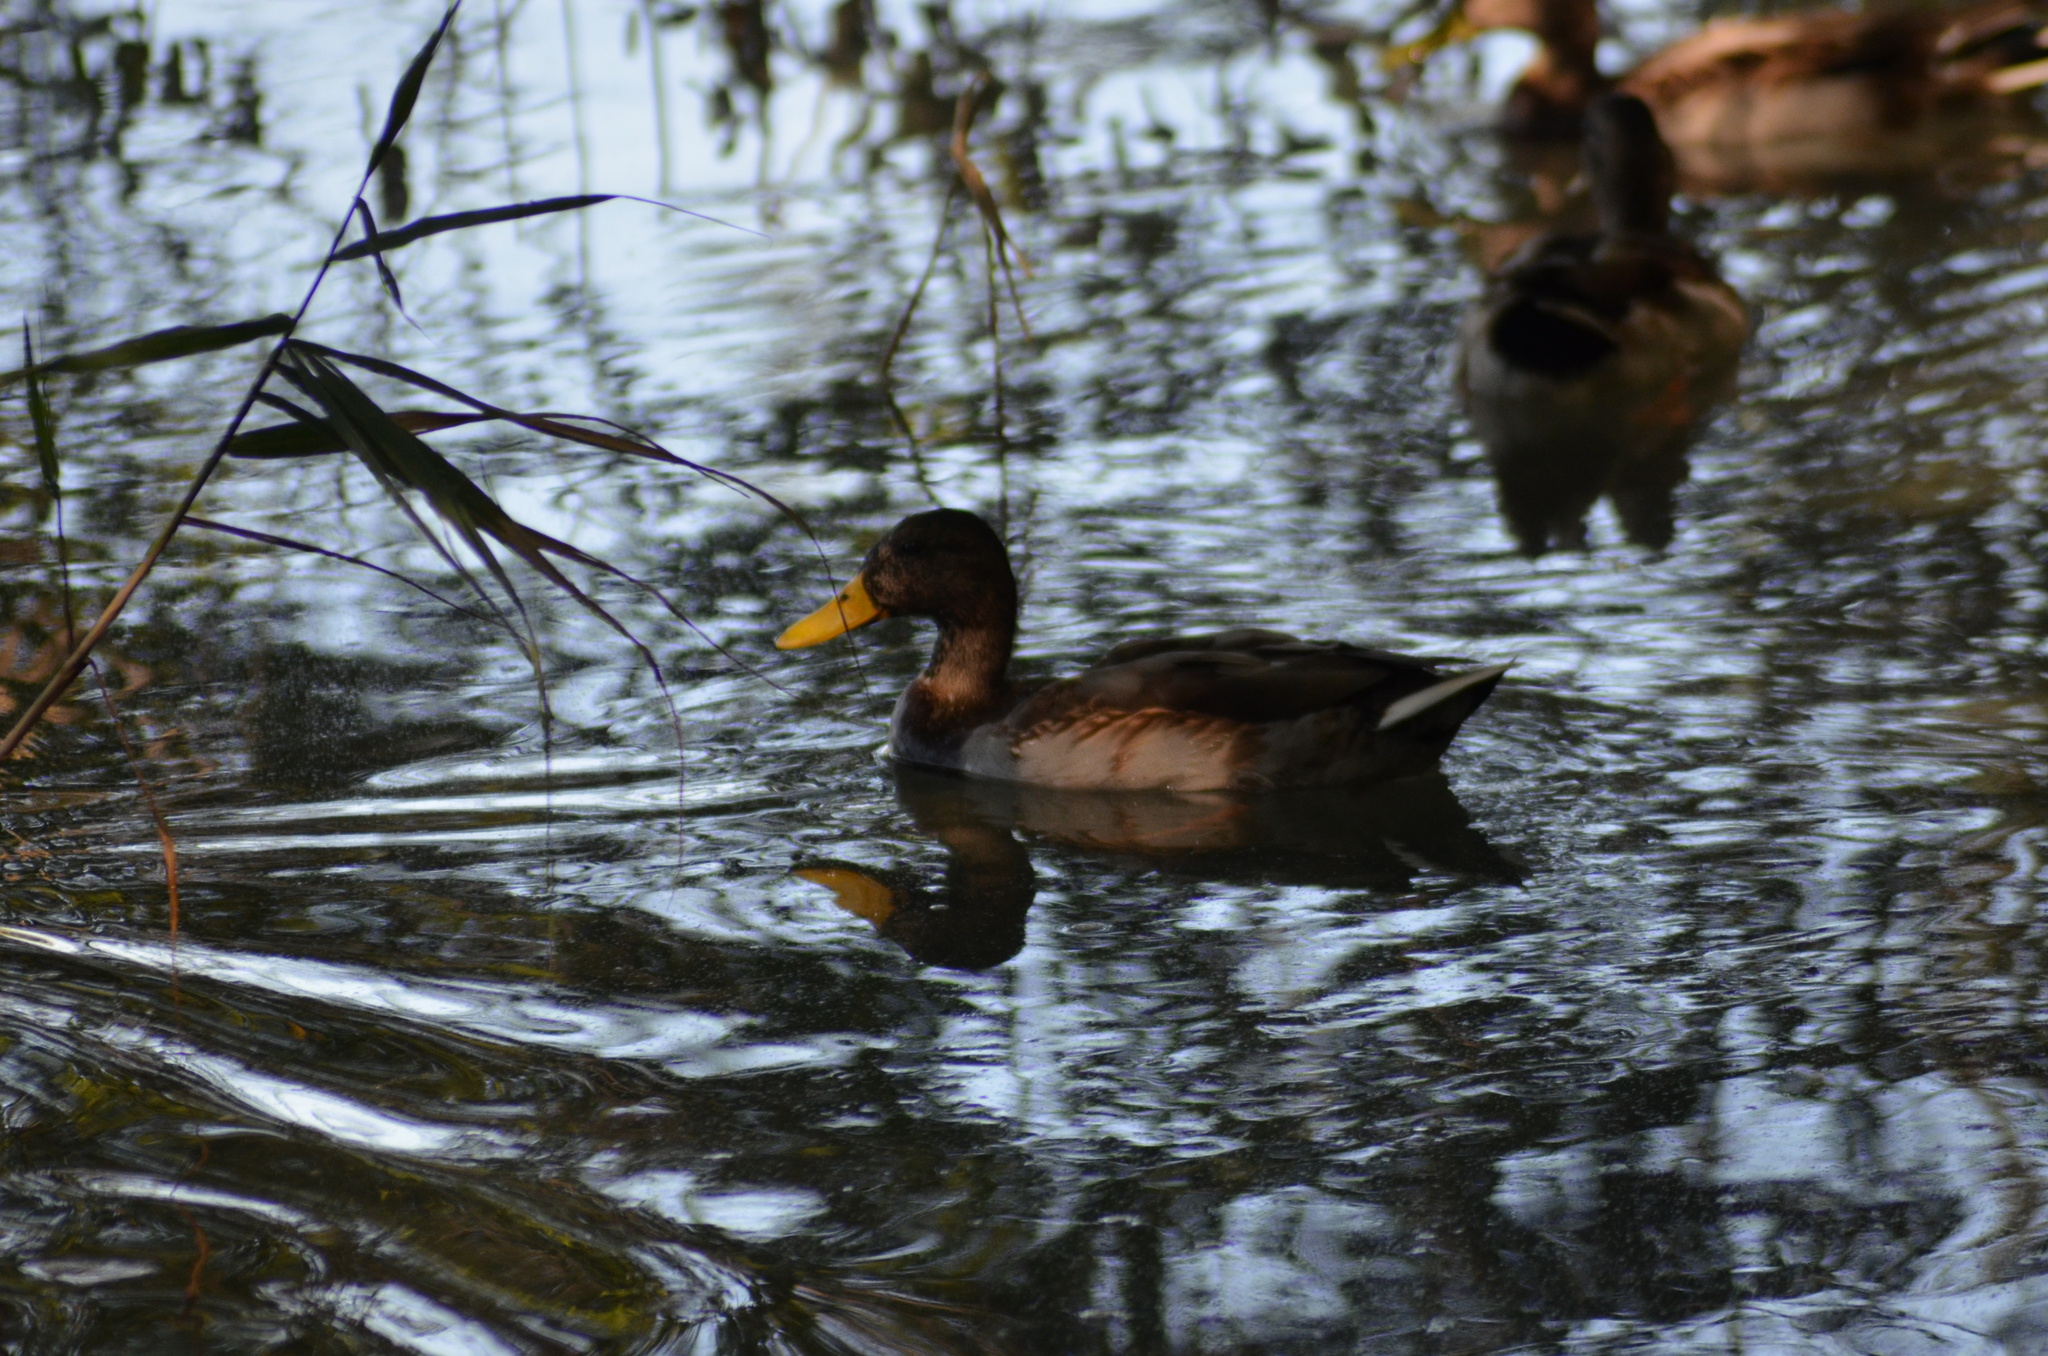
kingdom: Animalia
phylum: Chordata
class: Aves
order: Anseriformes
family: Anatidae
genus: Anas
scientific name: Anas platyrhynchos
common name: Mallard
